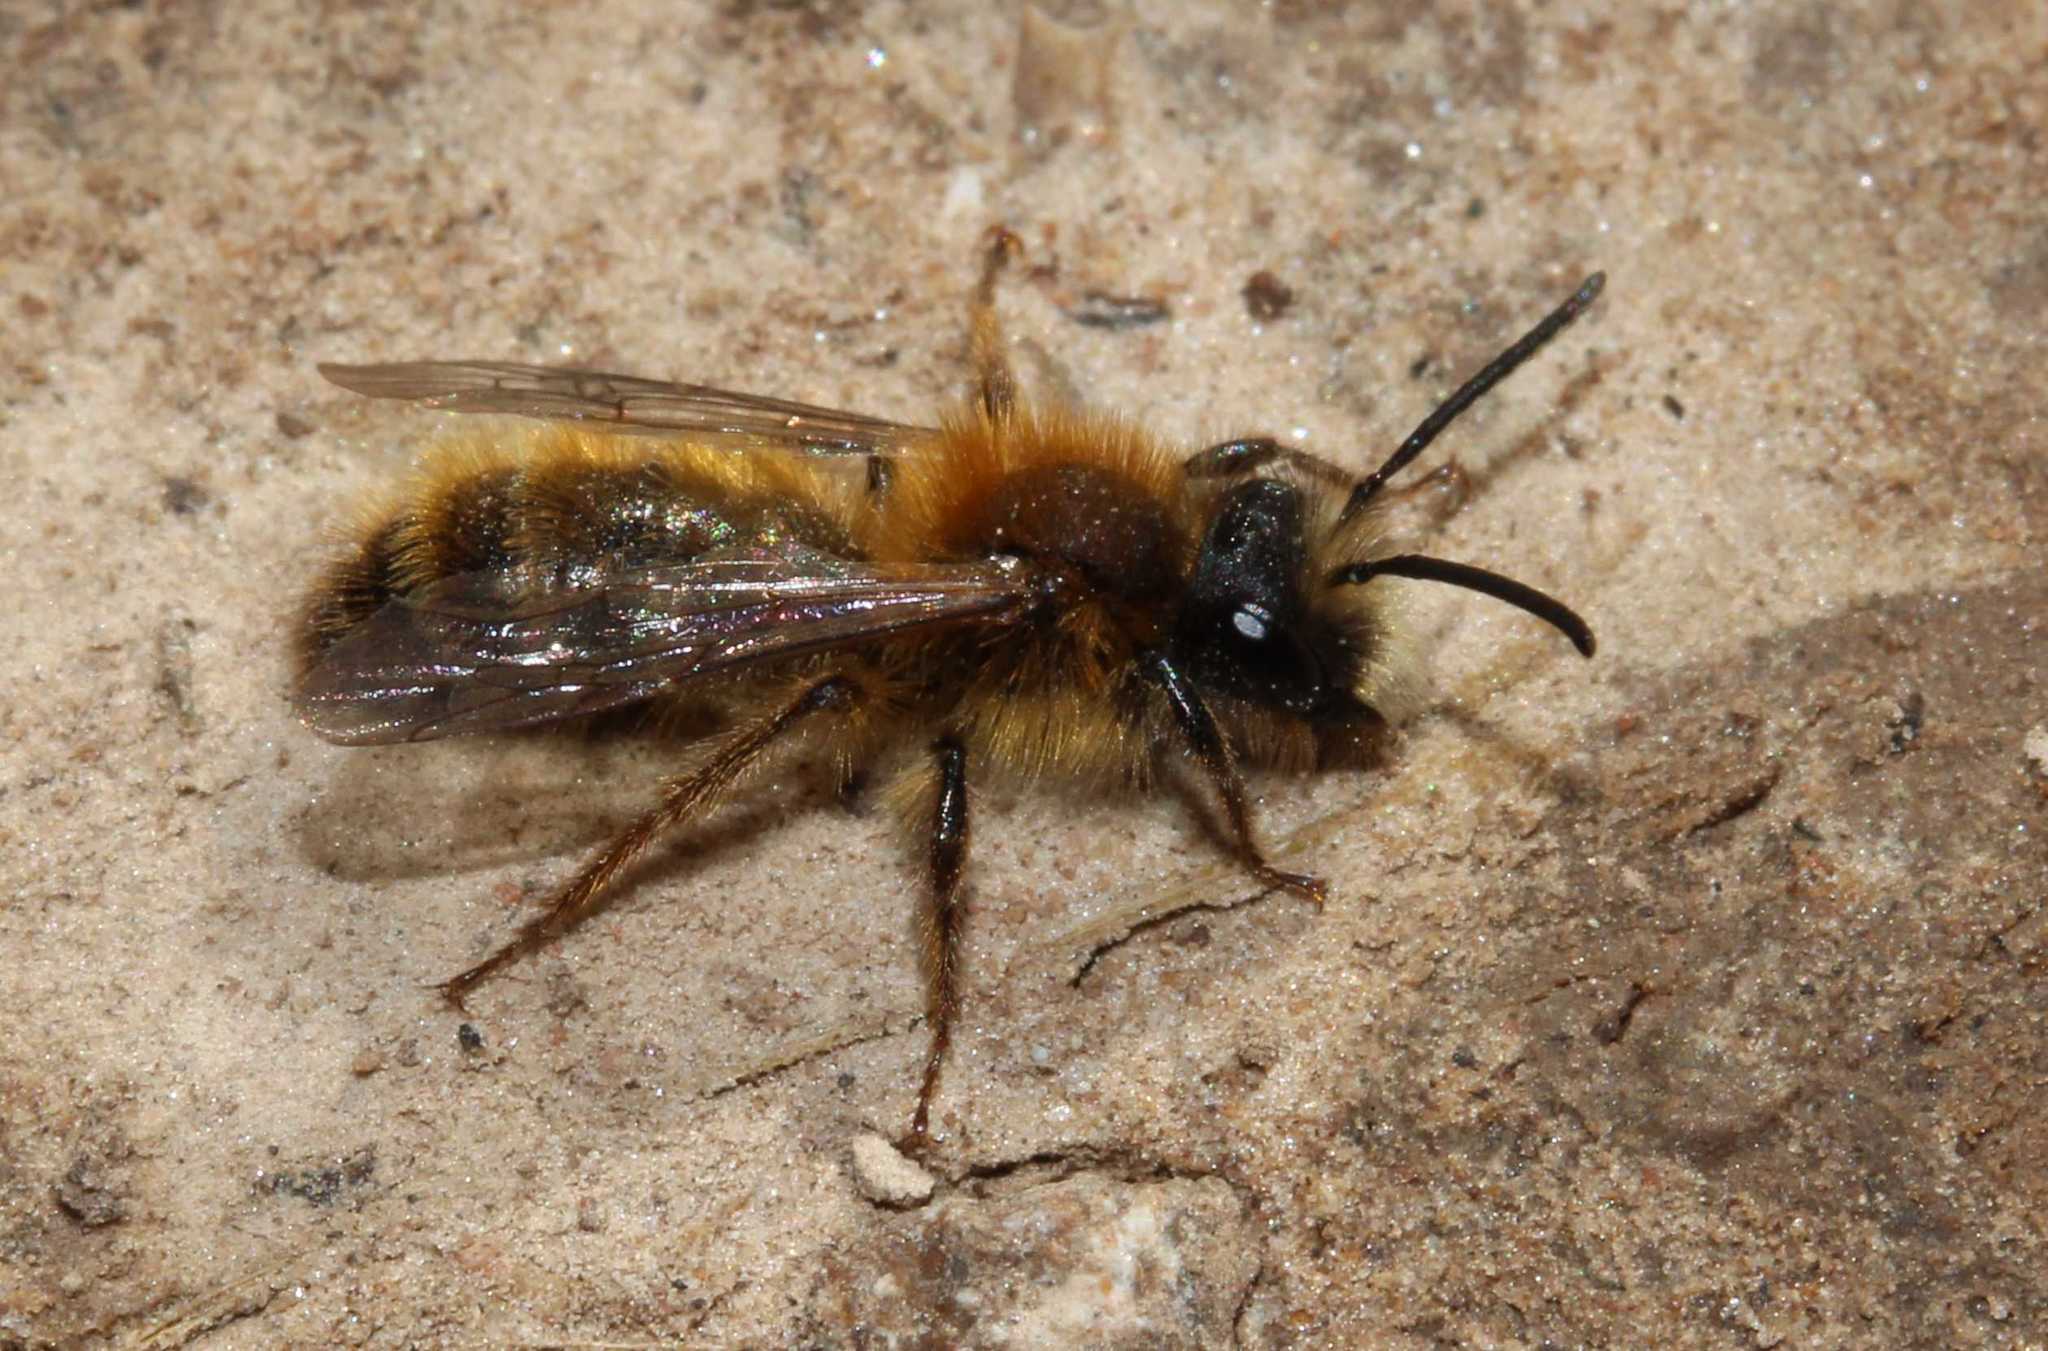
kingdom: Animalia
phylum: Arthropoda
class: Insecta
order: Hymenoptera
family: Andrenidae
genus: Andrena
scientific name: Andrena
